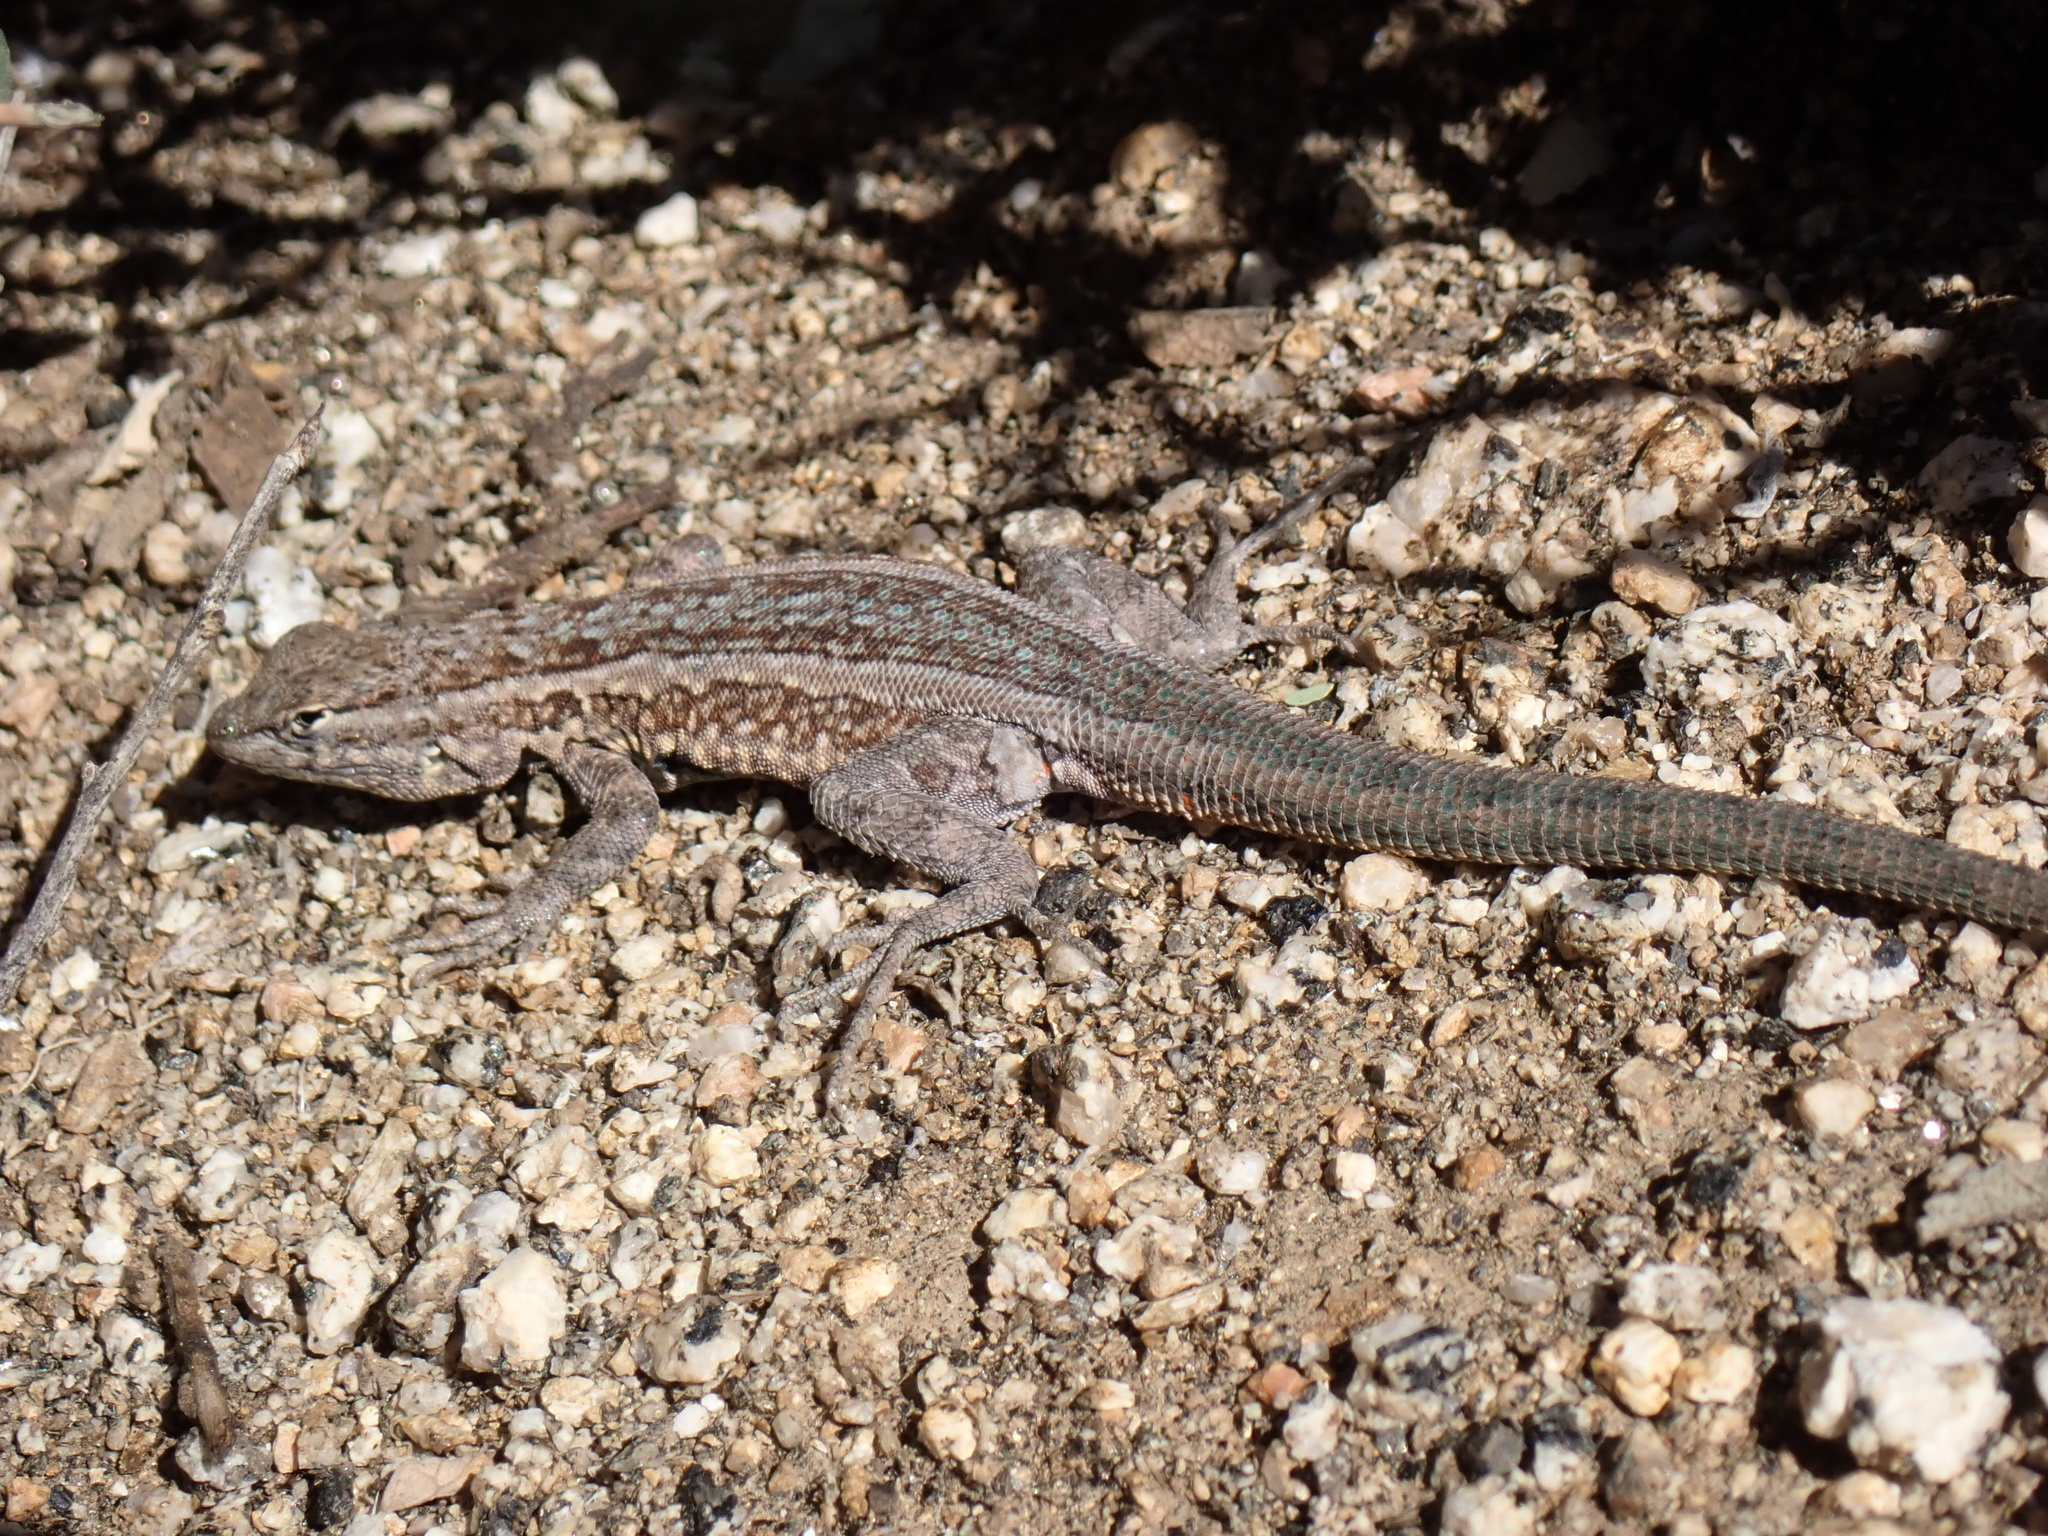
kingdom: Animalia
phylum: Chordata
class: Squamata
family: Phrynosomatidae
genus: Uta
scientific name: Uta stansburiana
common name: Side-blotched lizard
